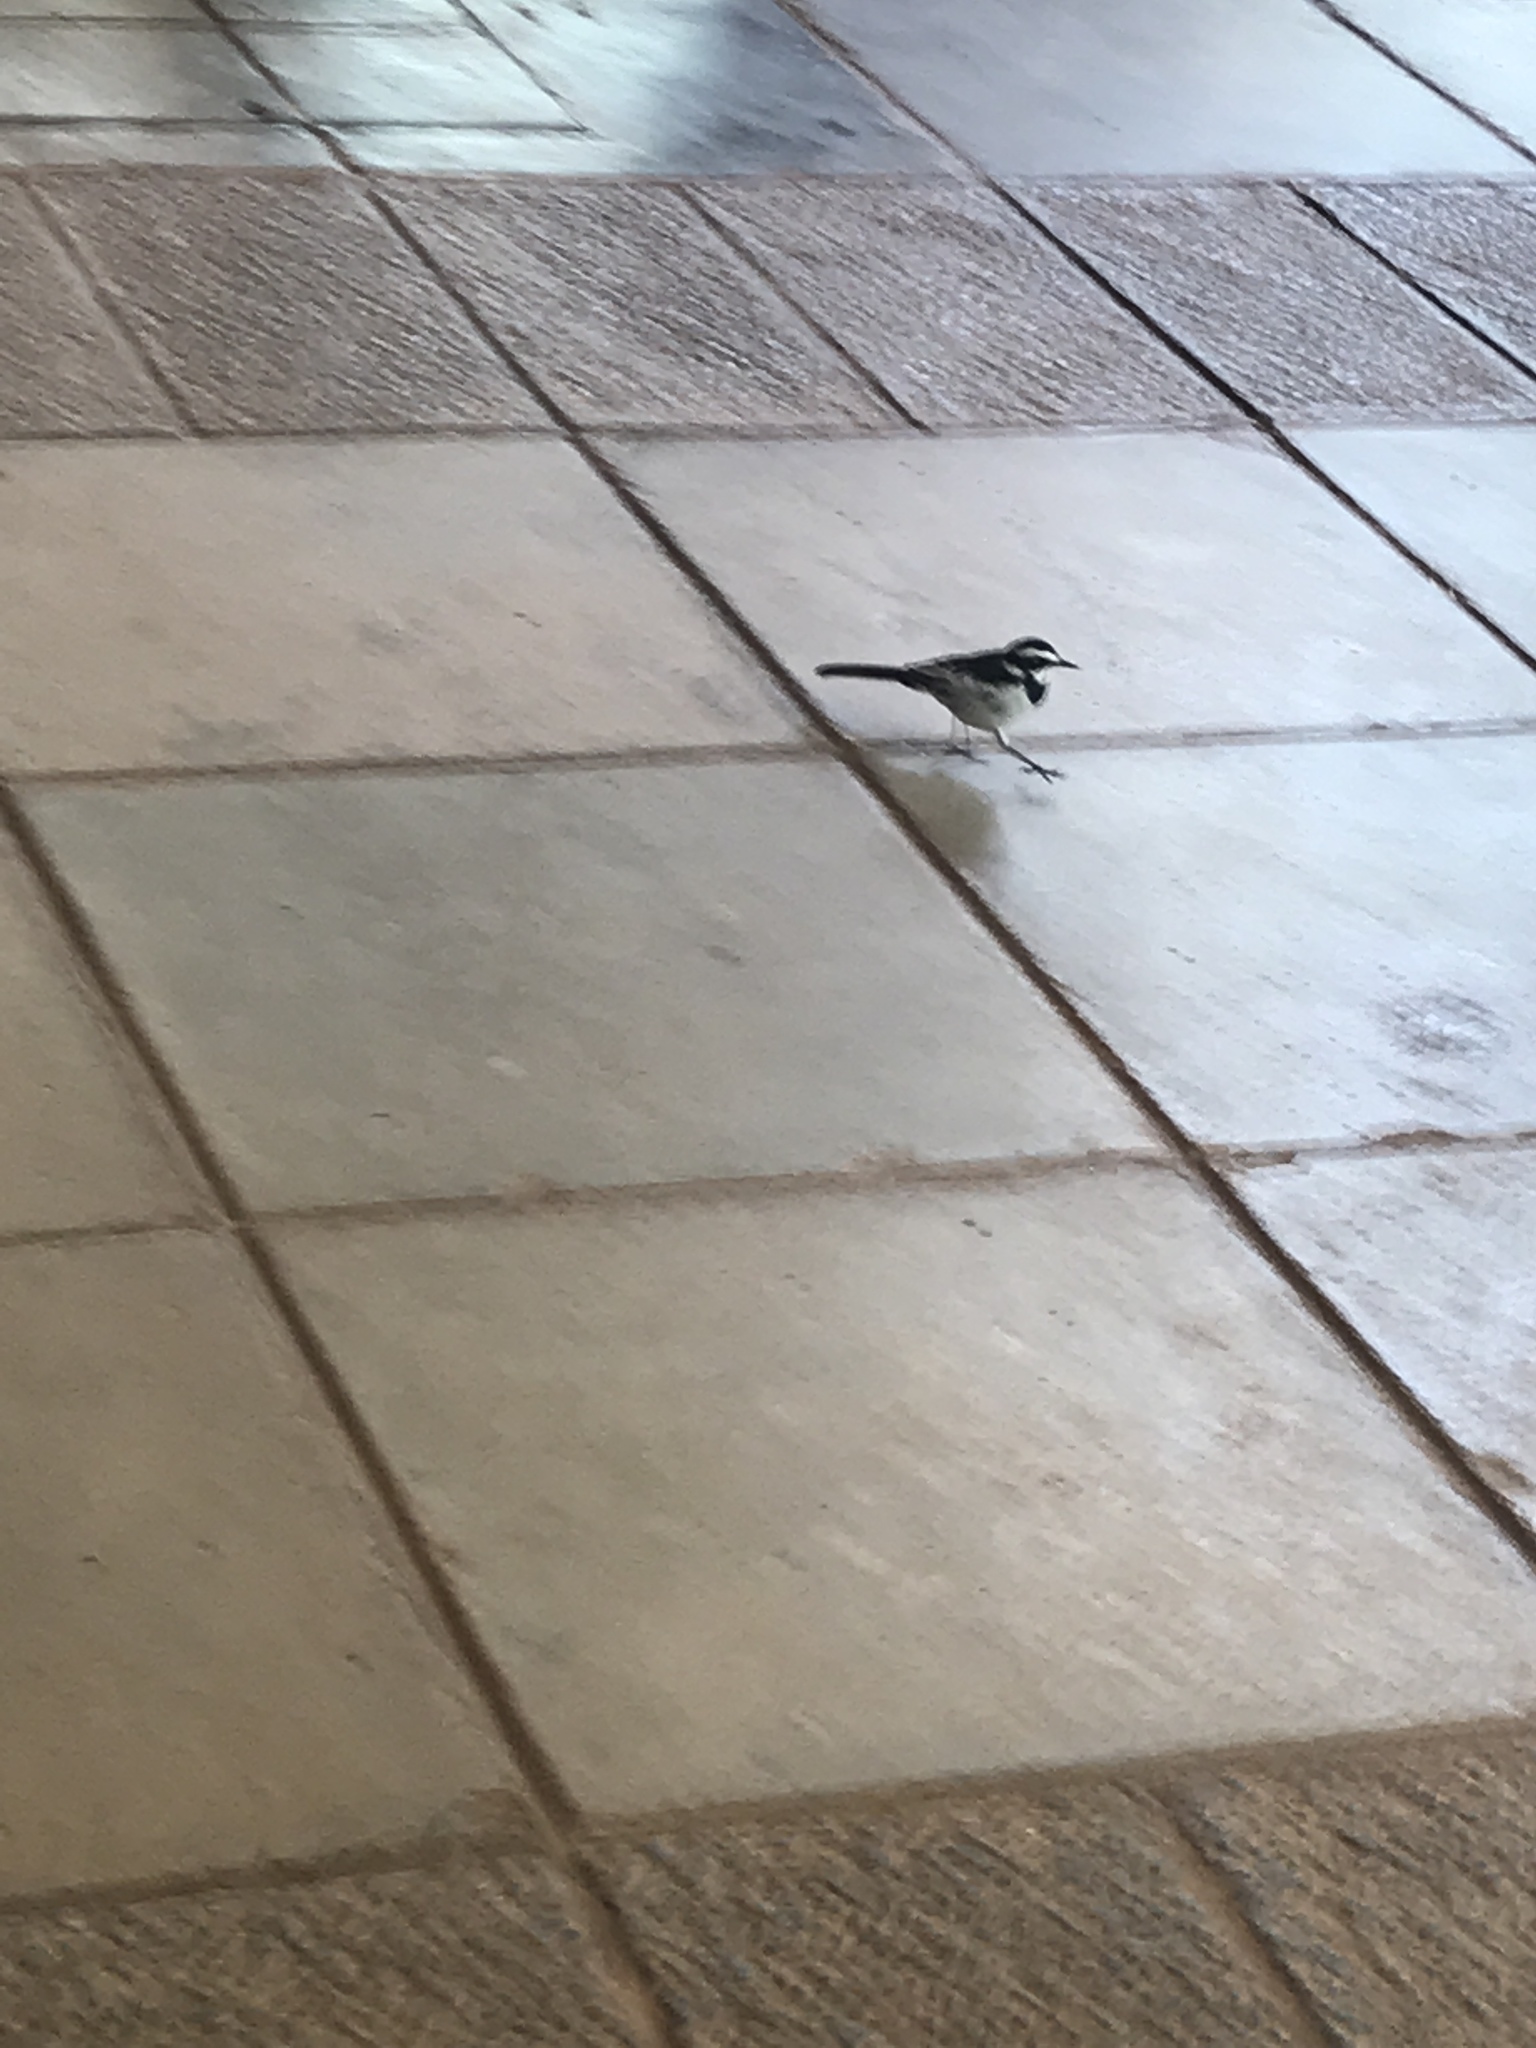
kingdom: Animalia
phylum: Chordata
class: Aves
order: Passeriformes
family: Motacillidae
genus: Motacilla
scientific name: Motacilla aguimp
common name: African pied wagtail
